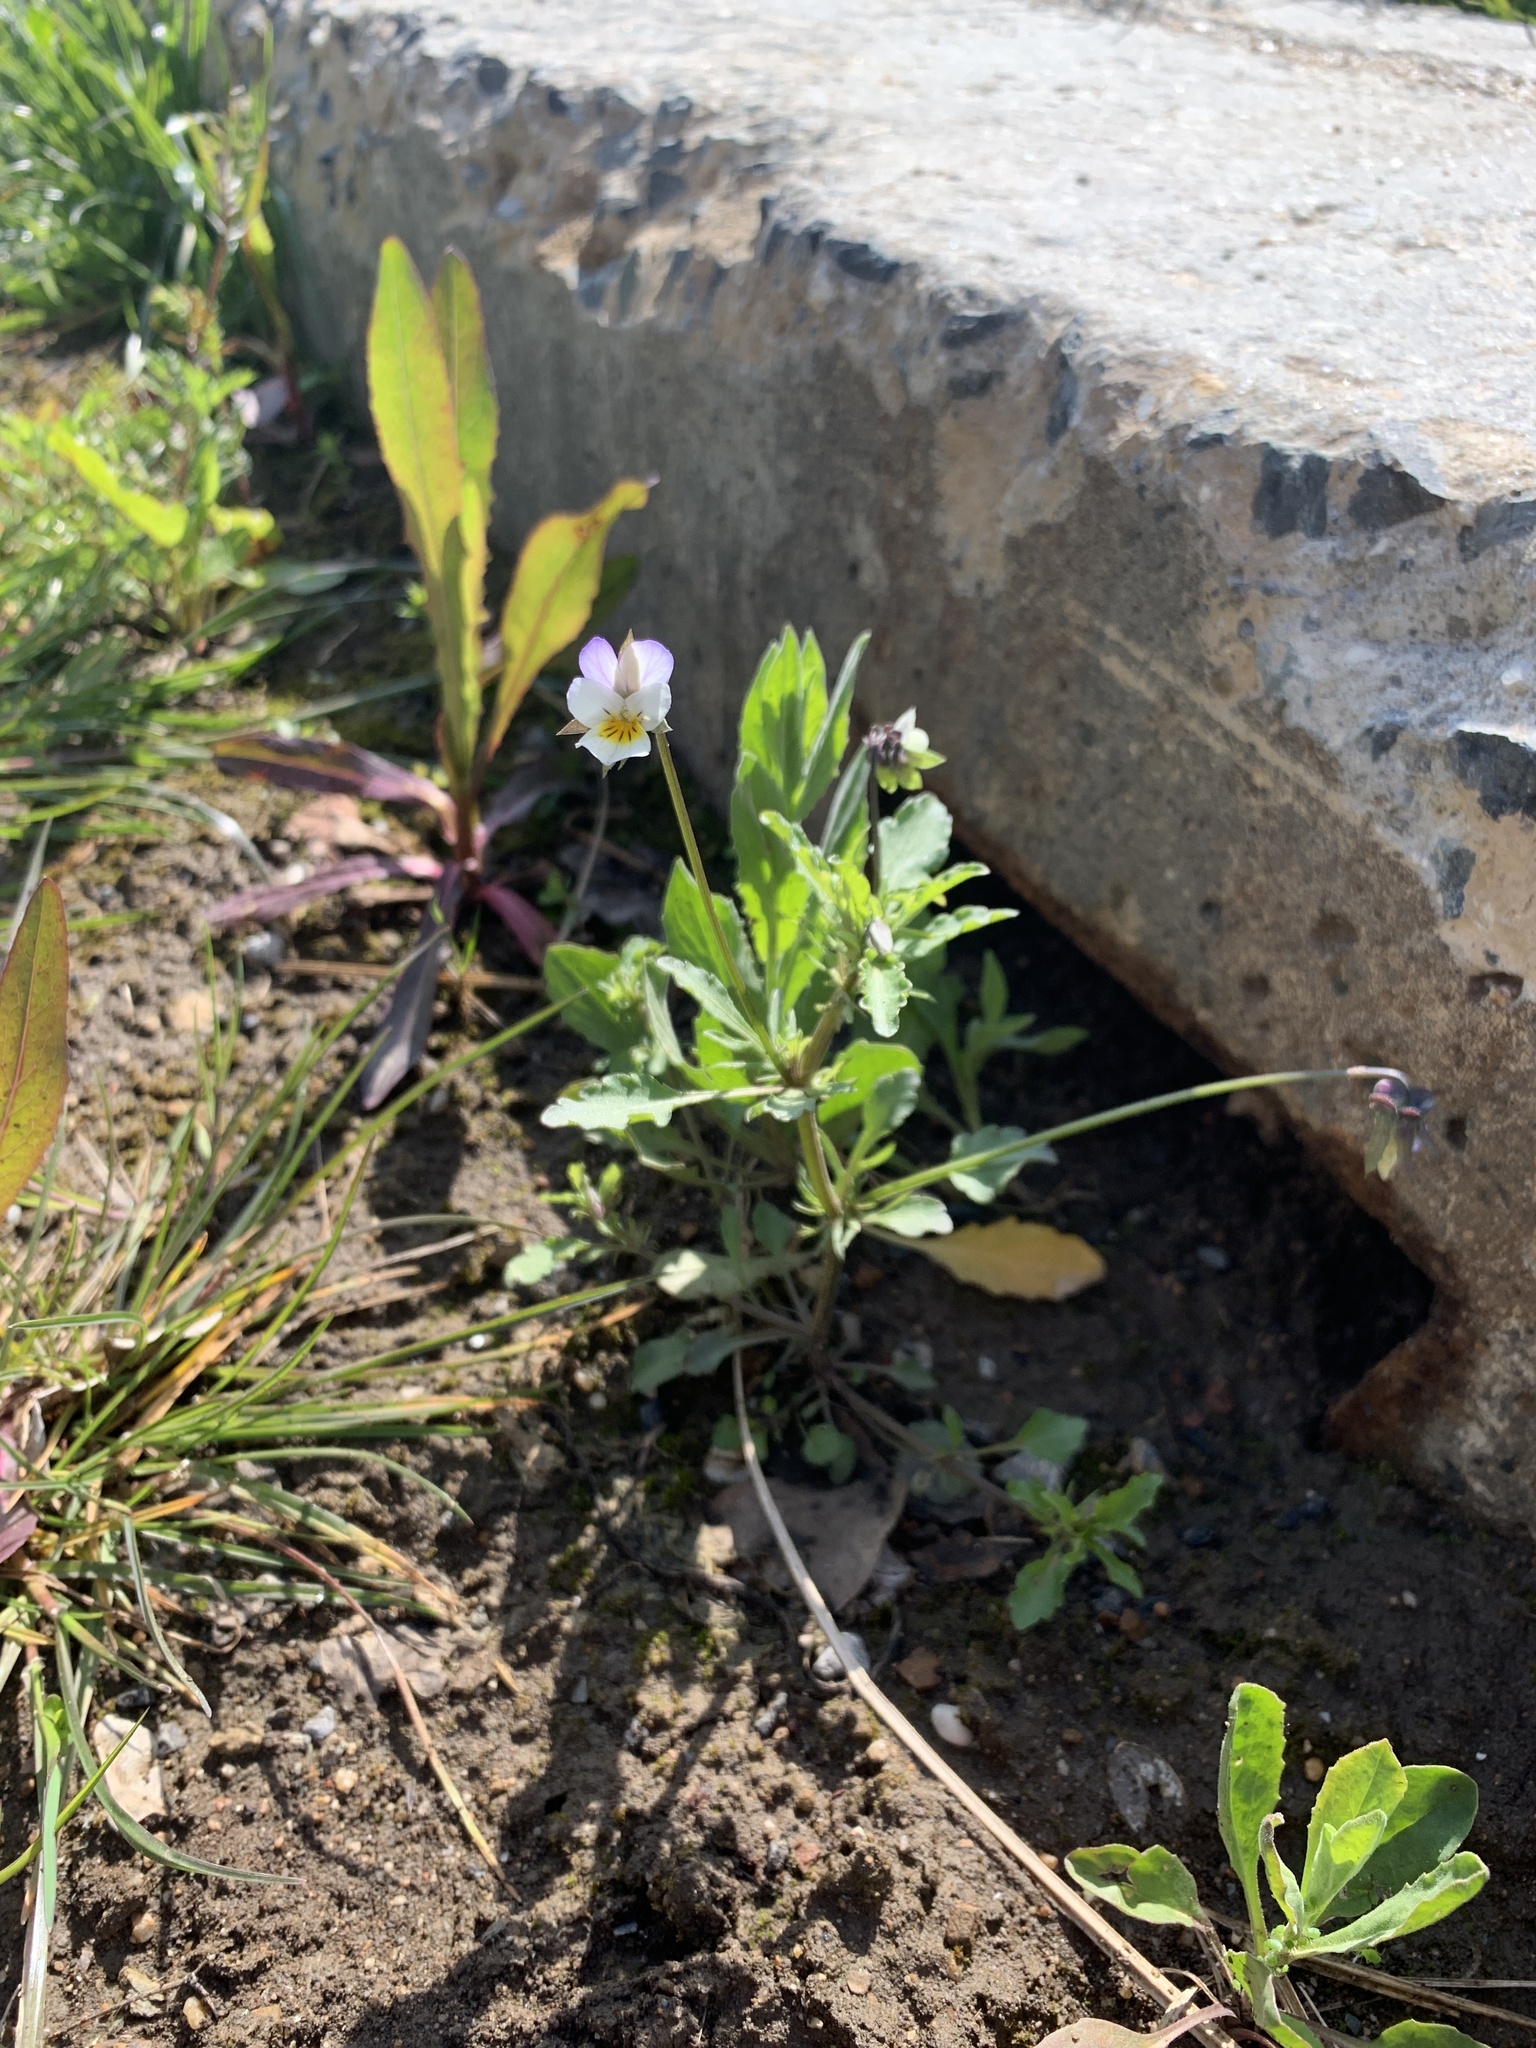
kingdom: Plantae
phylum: Tracheophyta
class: Magnoliopsida
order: Malpighiales
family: Violaceae
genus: Viola
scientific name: Viola arvensis
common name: Field pansy
